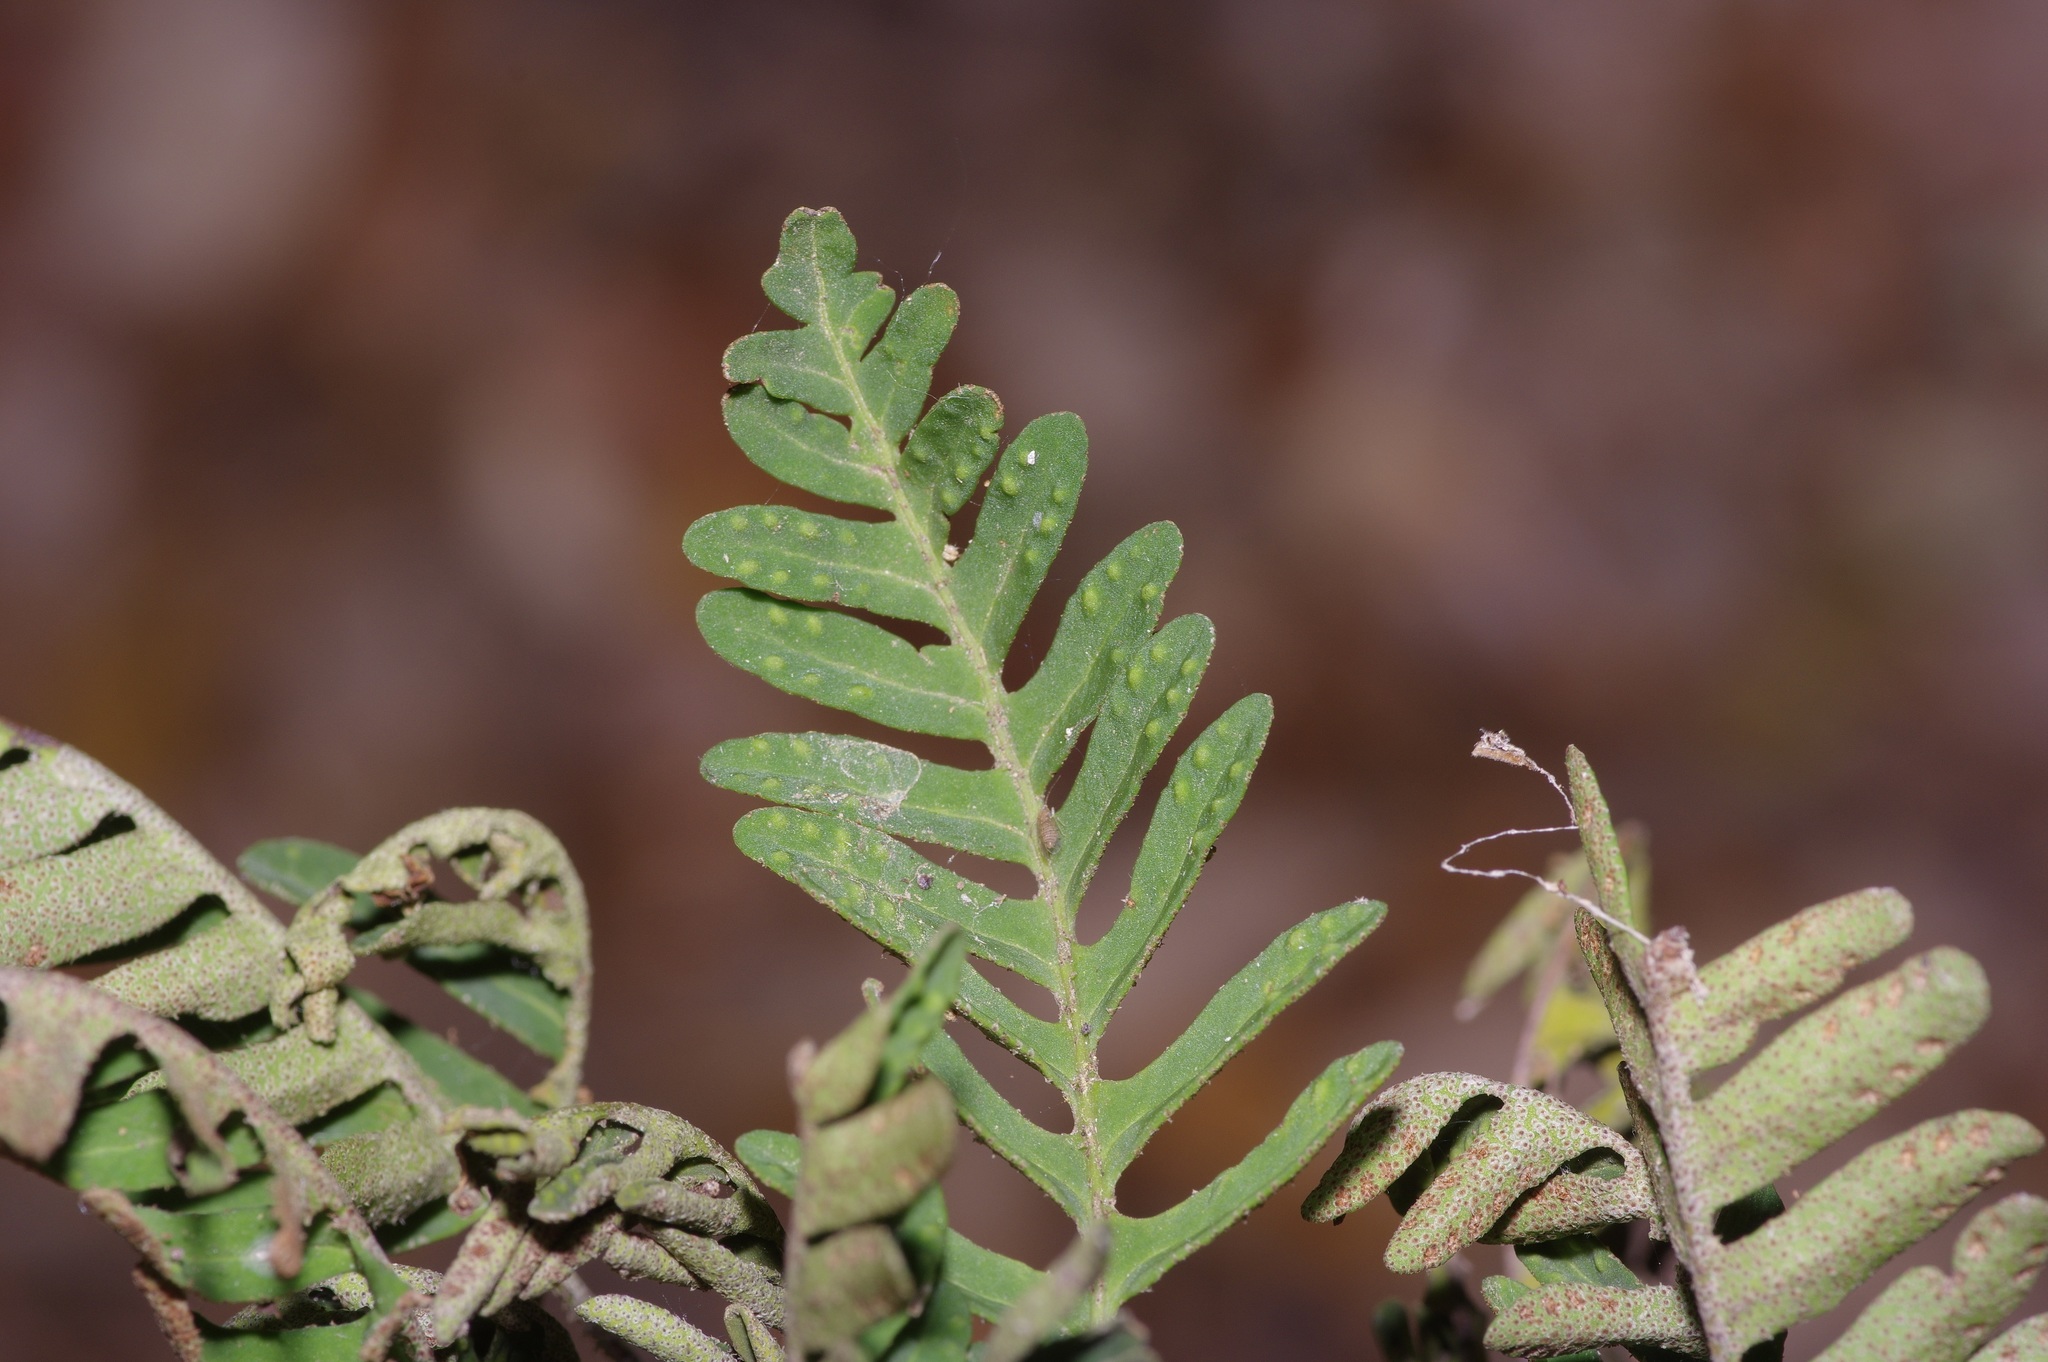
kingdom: Plantae
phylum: Tracheophyta
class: Polypodiopsida
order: Polypodiales
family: Polypodiaceae
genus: Pleopeltis
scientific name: Pleopeltis michauxiana
